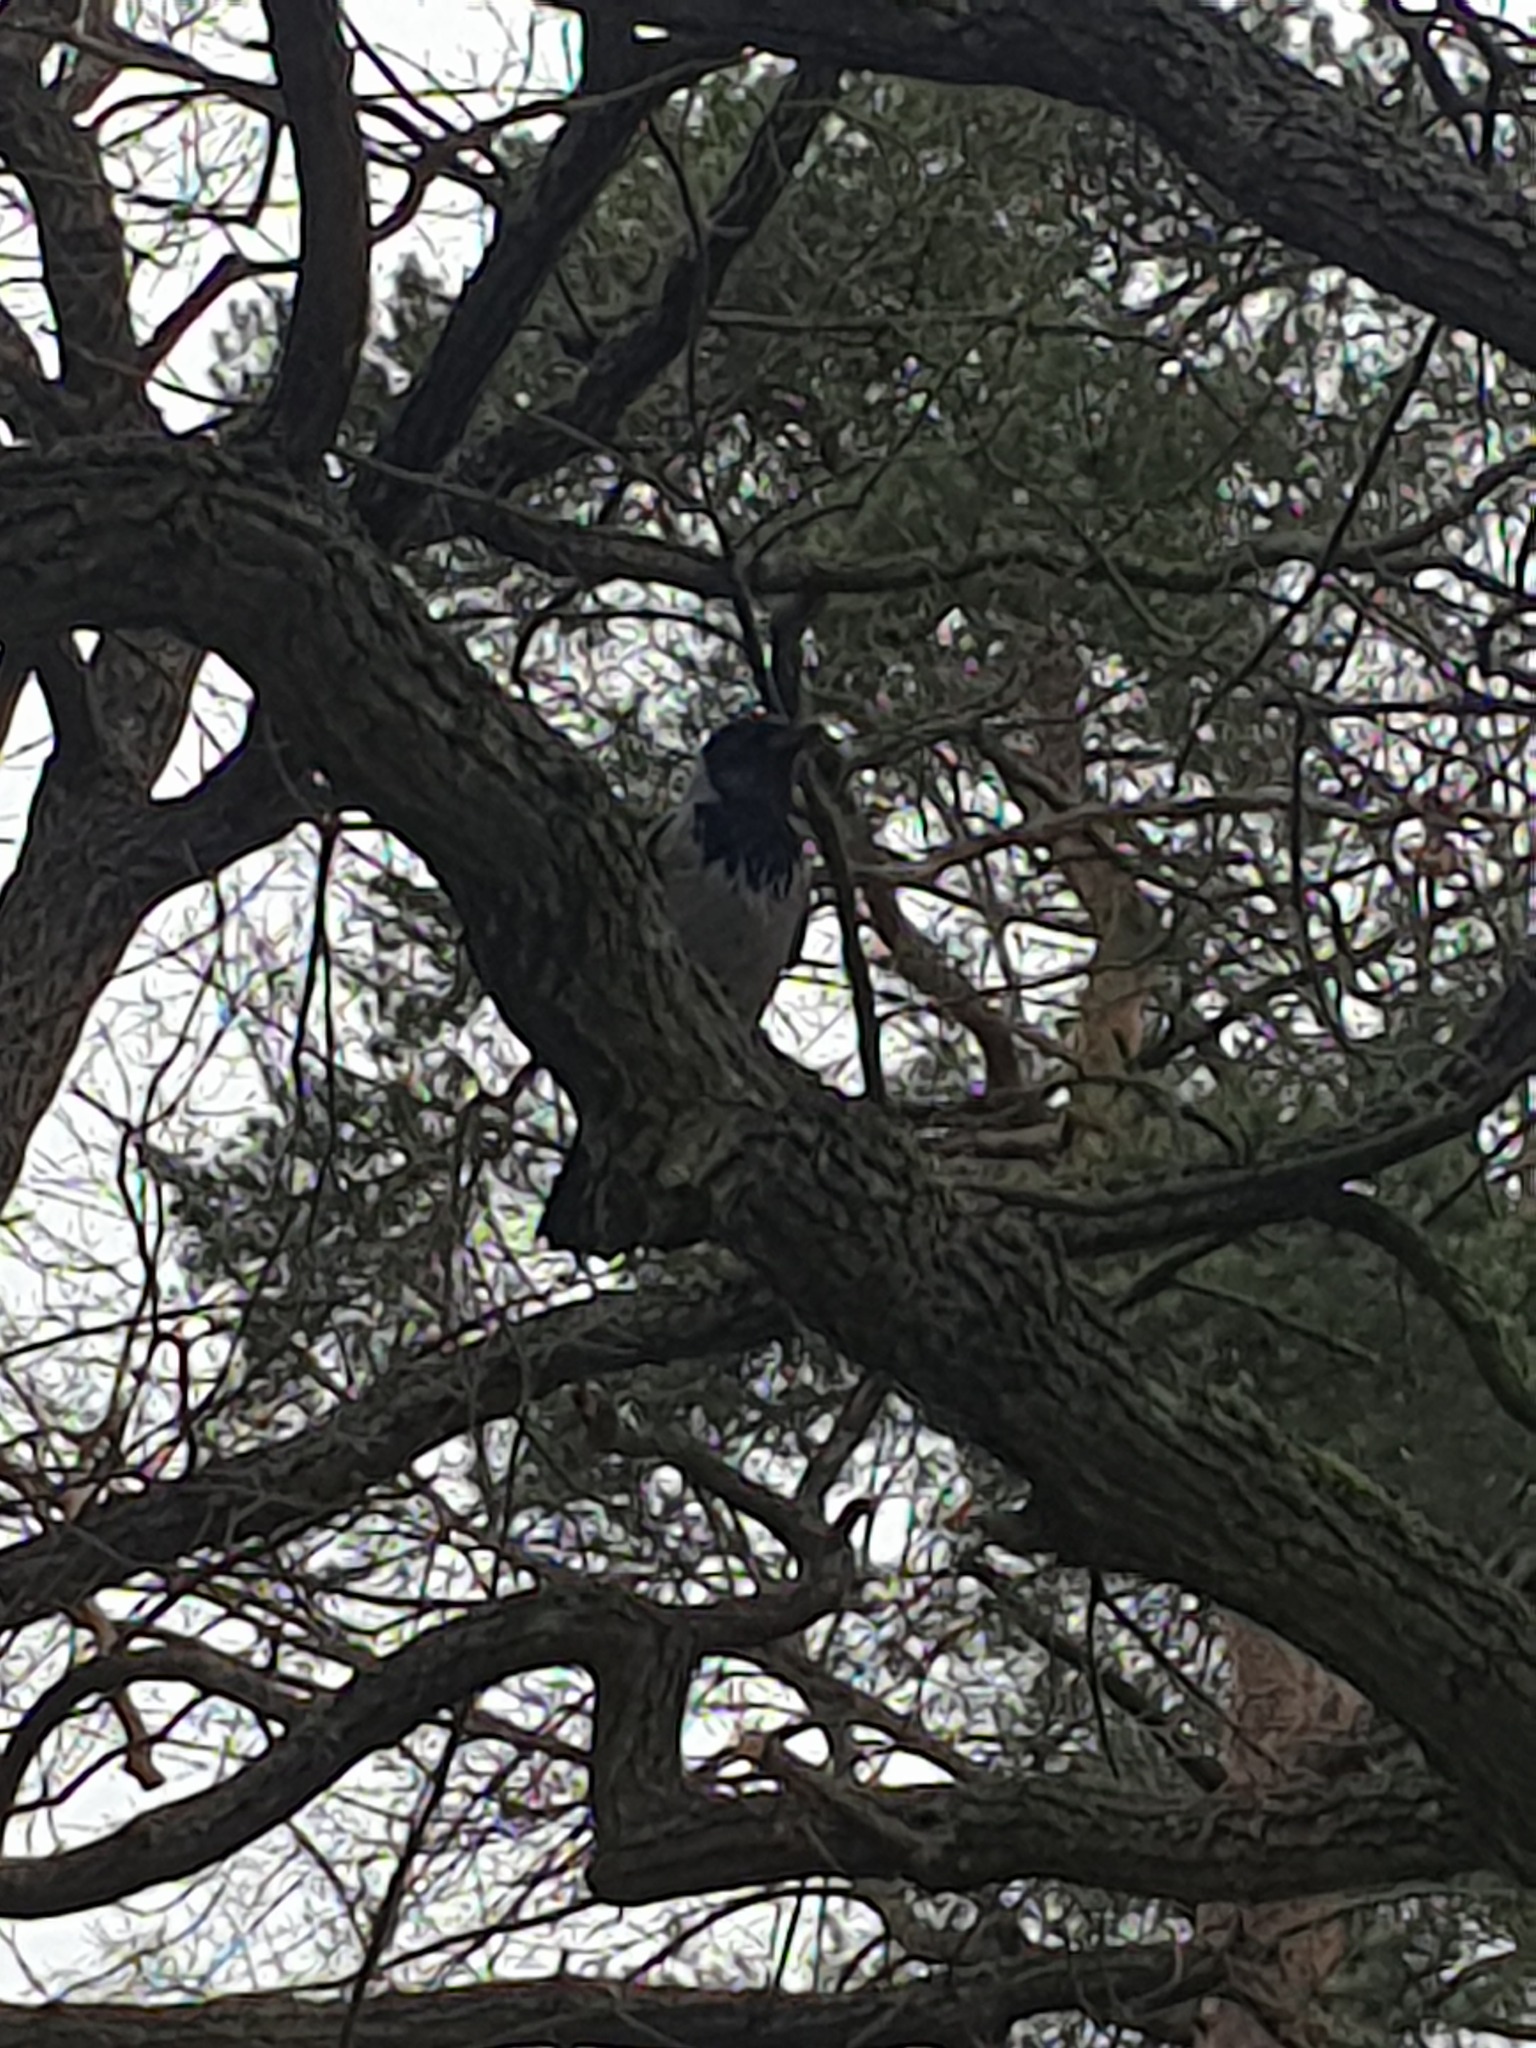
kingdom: Animalia
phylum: Chordata
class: Aves
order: Passeriformes
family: Corvidae
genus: Corvus
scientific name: Corvus cornix
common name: Hooded crow
